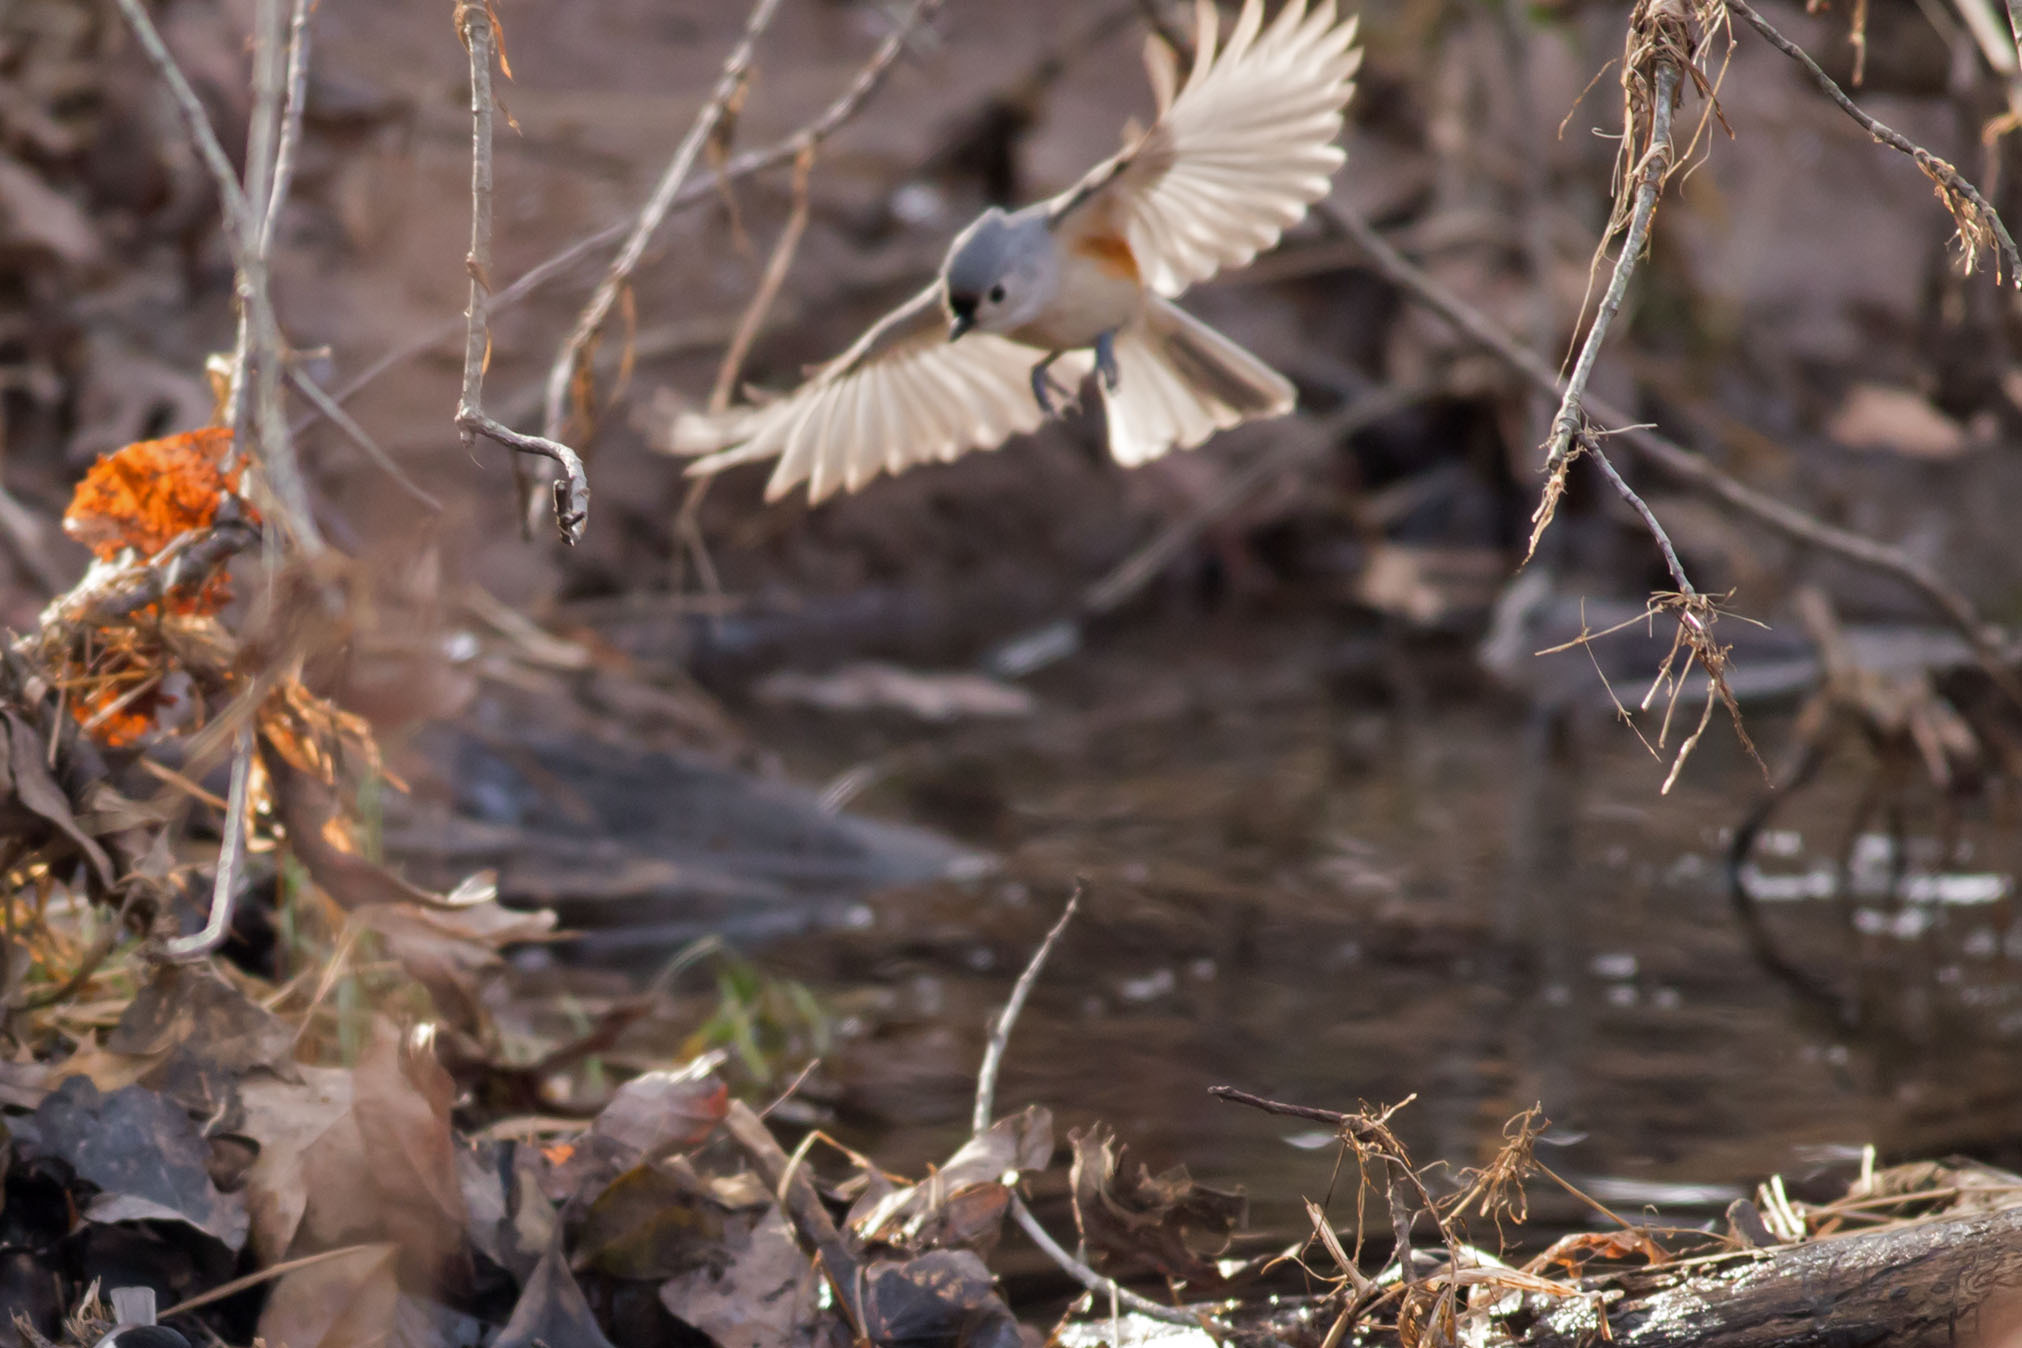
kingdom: Animalia
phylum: Chordata
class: Aves
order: Passeriformes
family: Paridae
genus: Baeolophus
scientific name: Baeolophus bicolor
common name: Tufted titmouse
